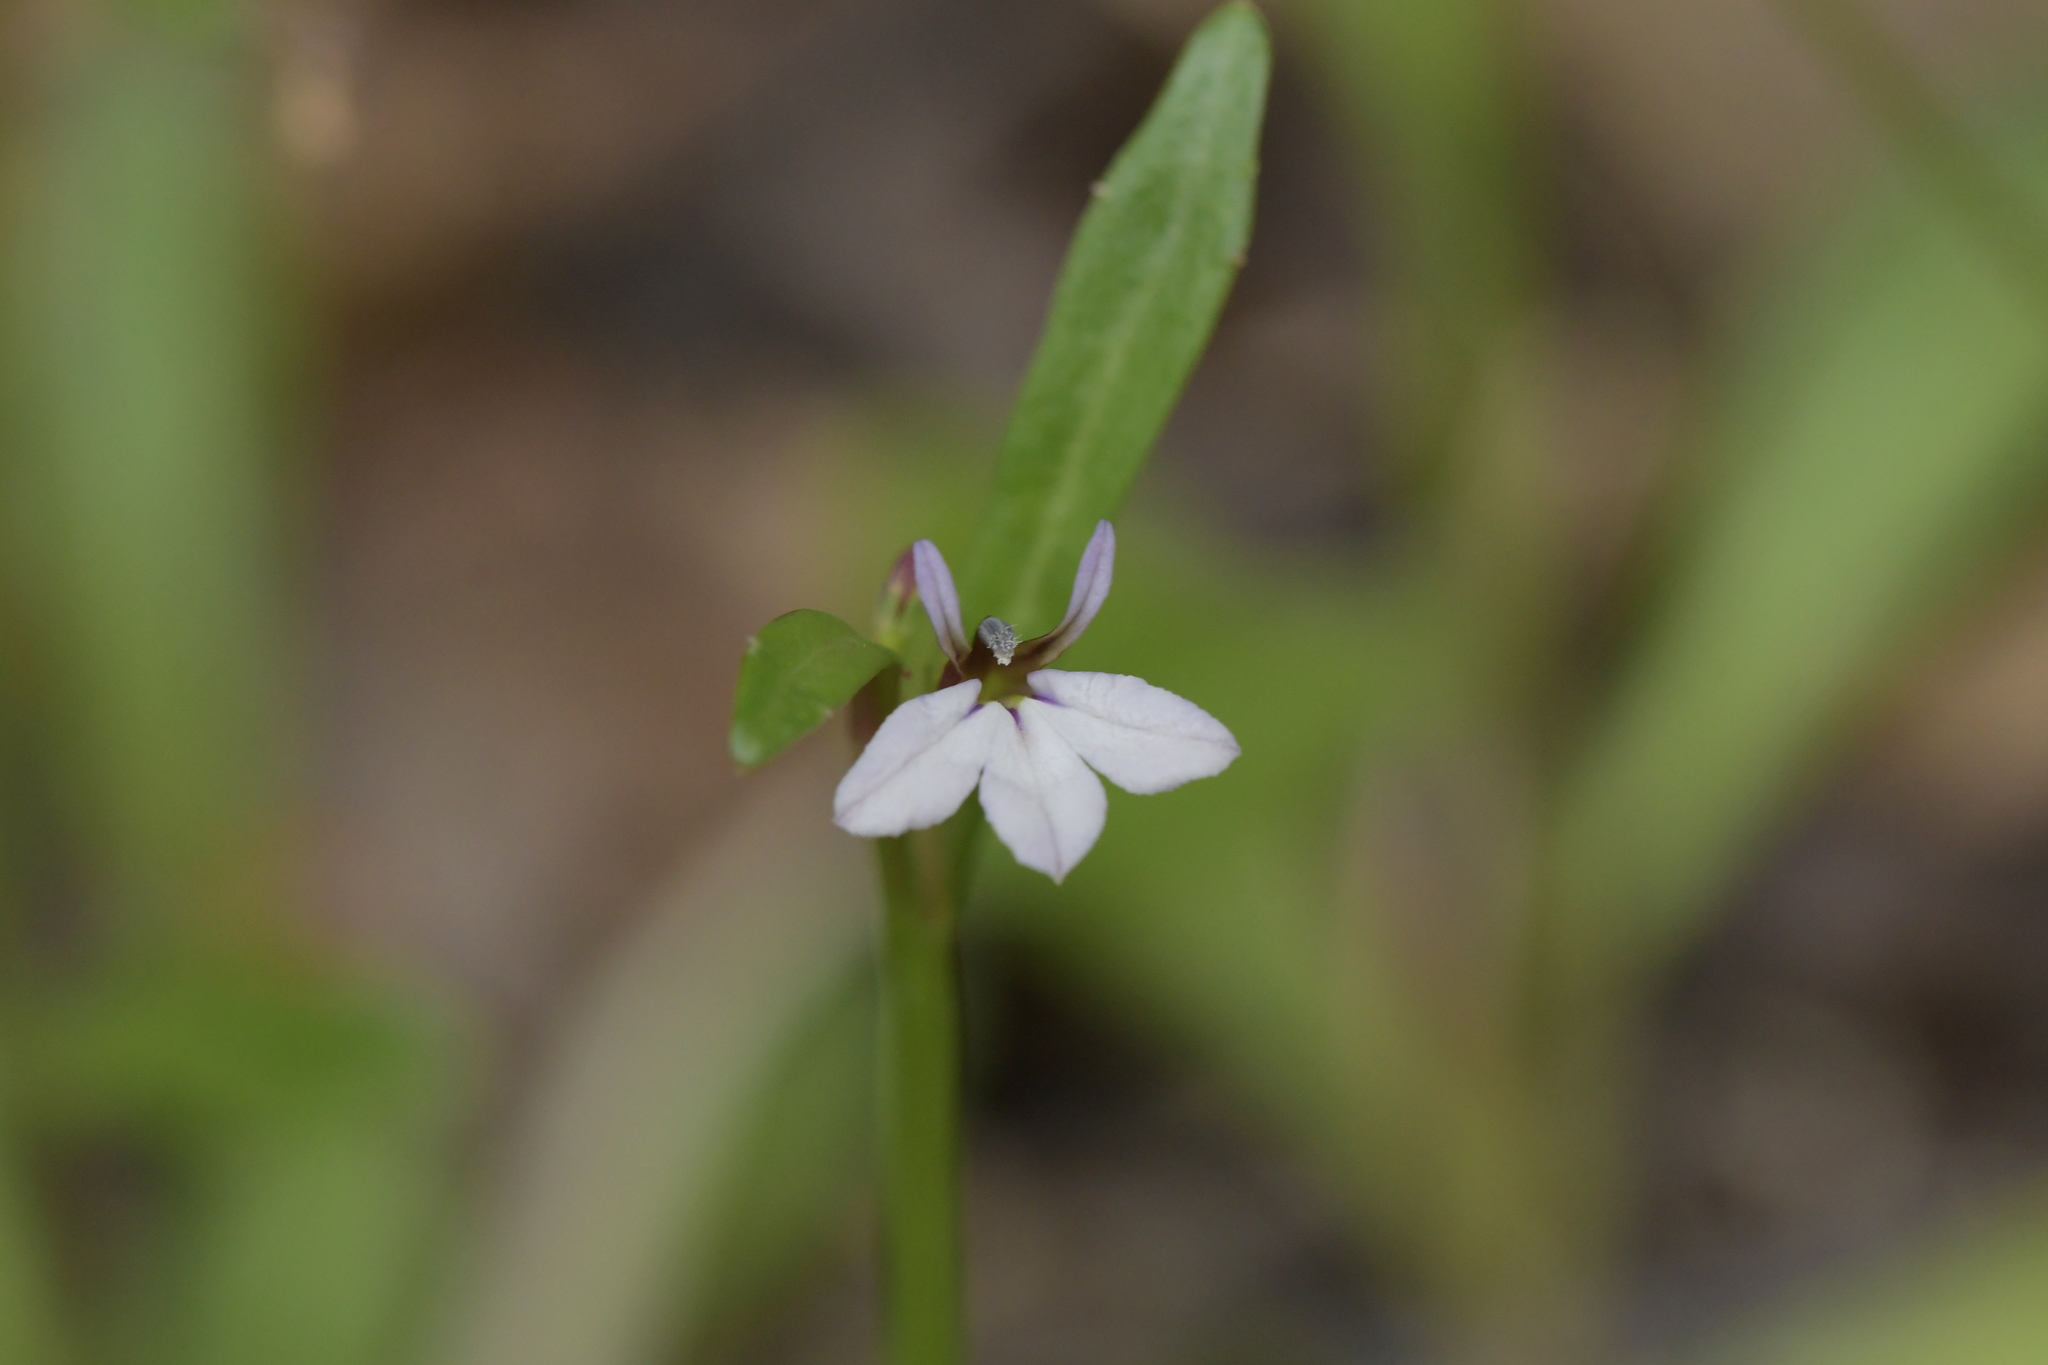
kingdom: Plantae
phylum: Tracheophyta
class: Magnoliopsida
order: Asterales
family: Campanulaceae
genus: Lobelia
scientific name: Lobelia anceps
